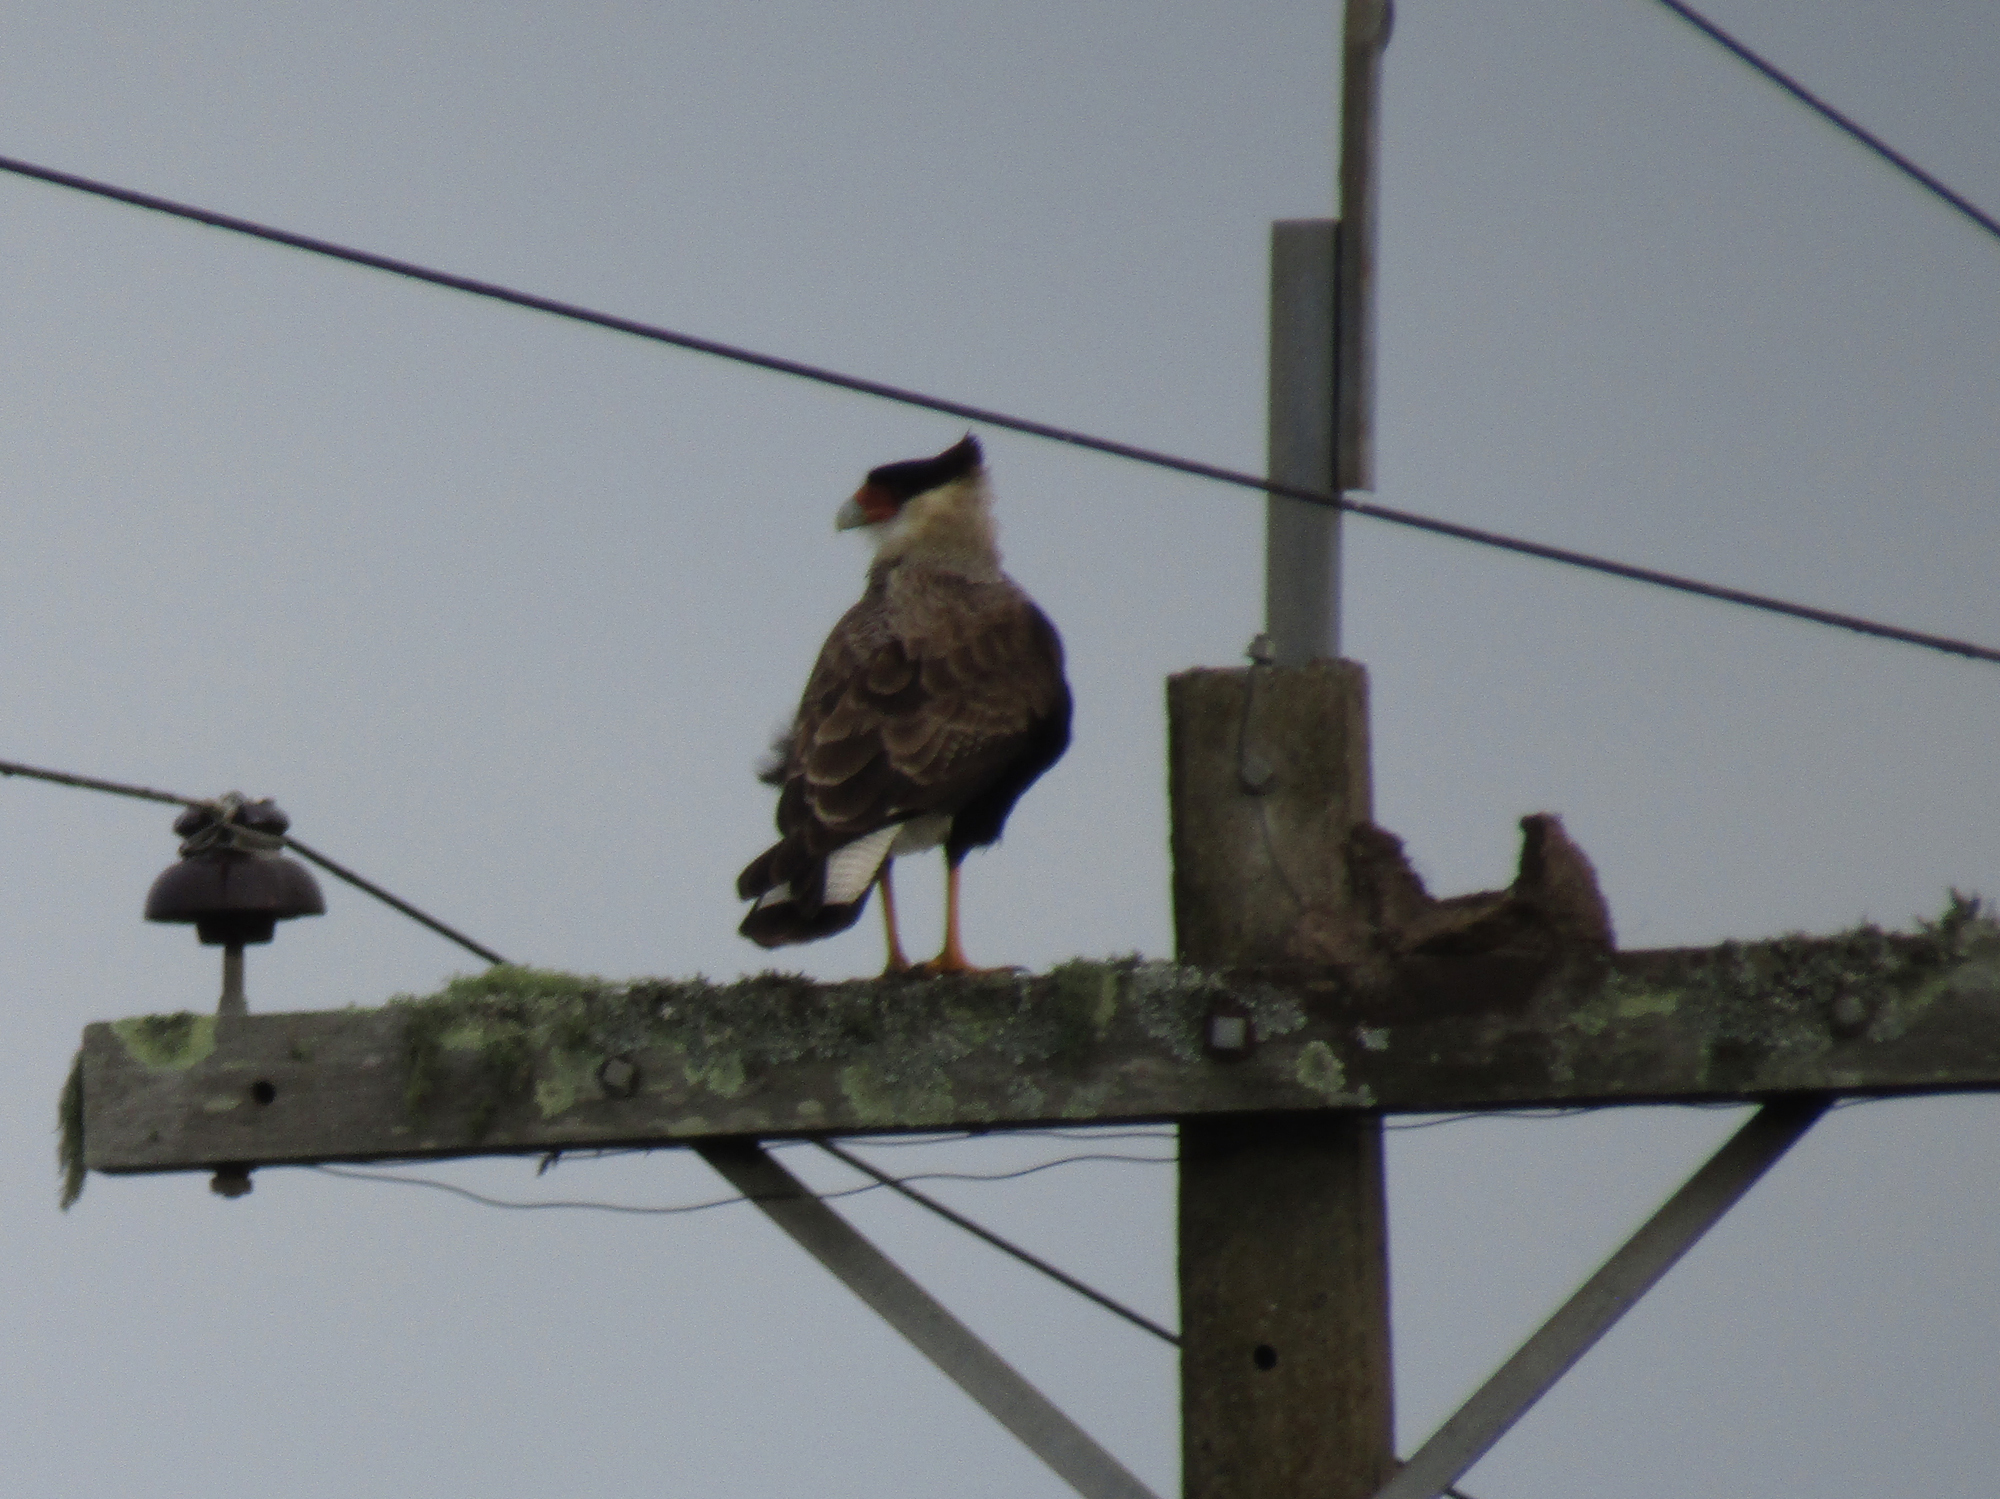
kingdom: Animalia
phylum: Chordata
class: Aves
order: Falconiformes
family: Falconidae
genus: Caracara
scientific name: Caracara plancus
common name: Southern caracara
